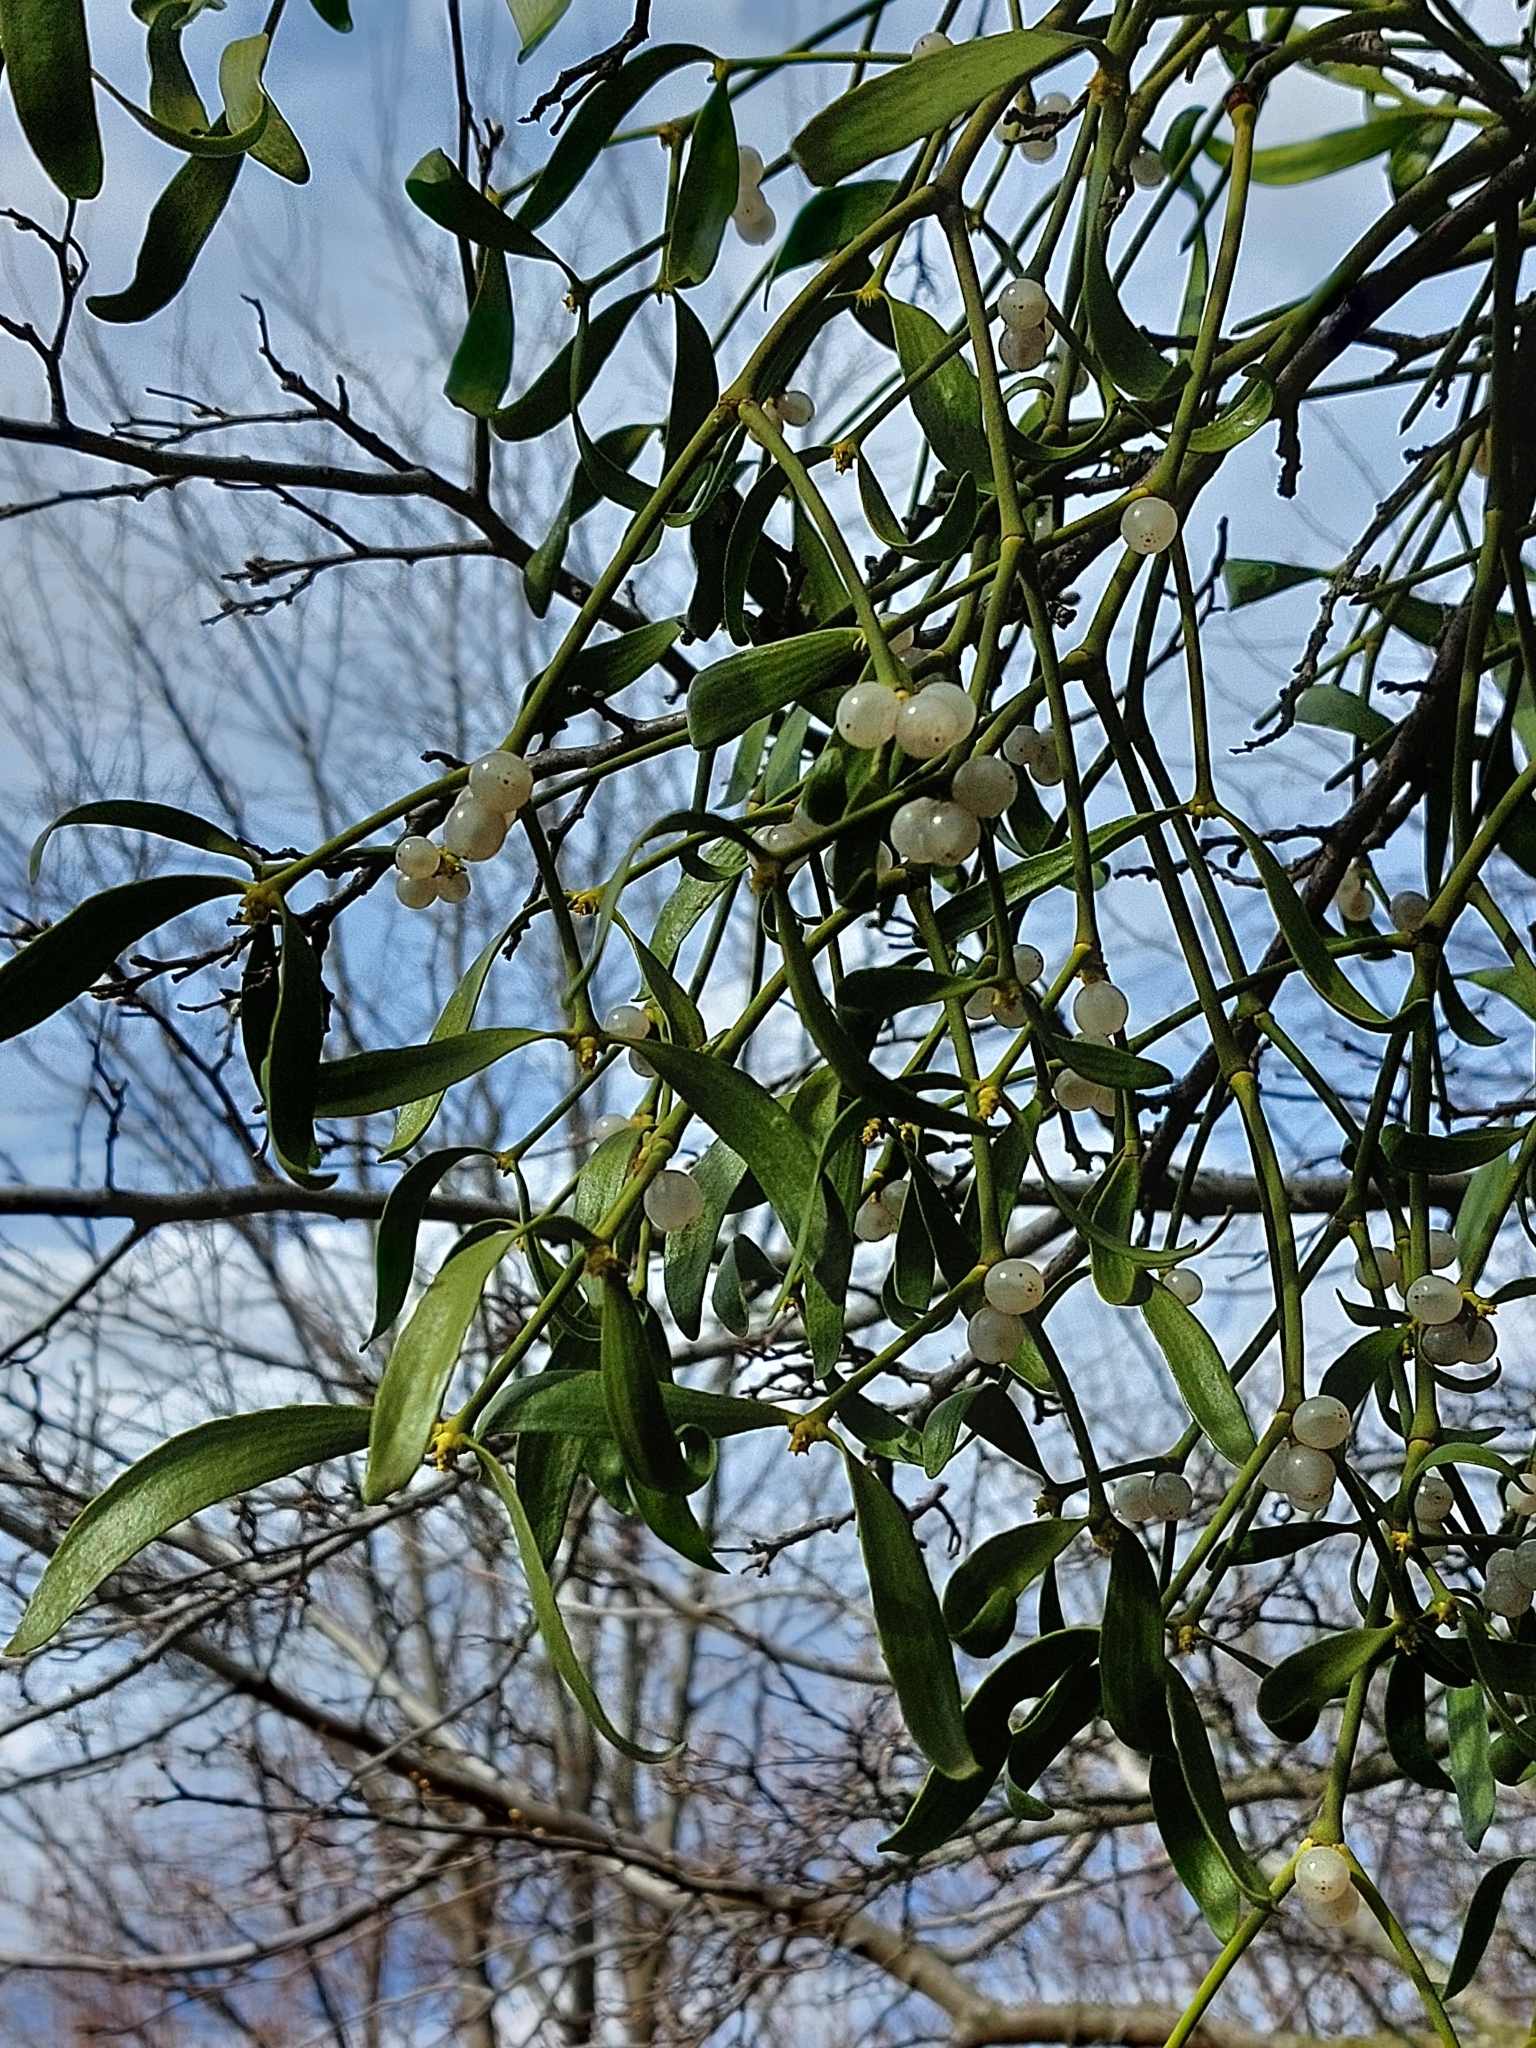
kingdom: Plantae
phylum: Tracheophyta
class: Magnoliopsida
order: Santalales
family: Viscaceae
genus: Viscum
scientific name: Viscum album
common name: Mistletoe
